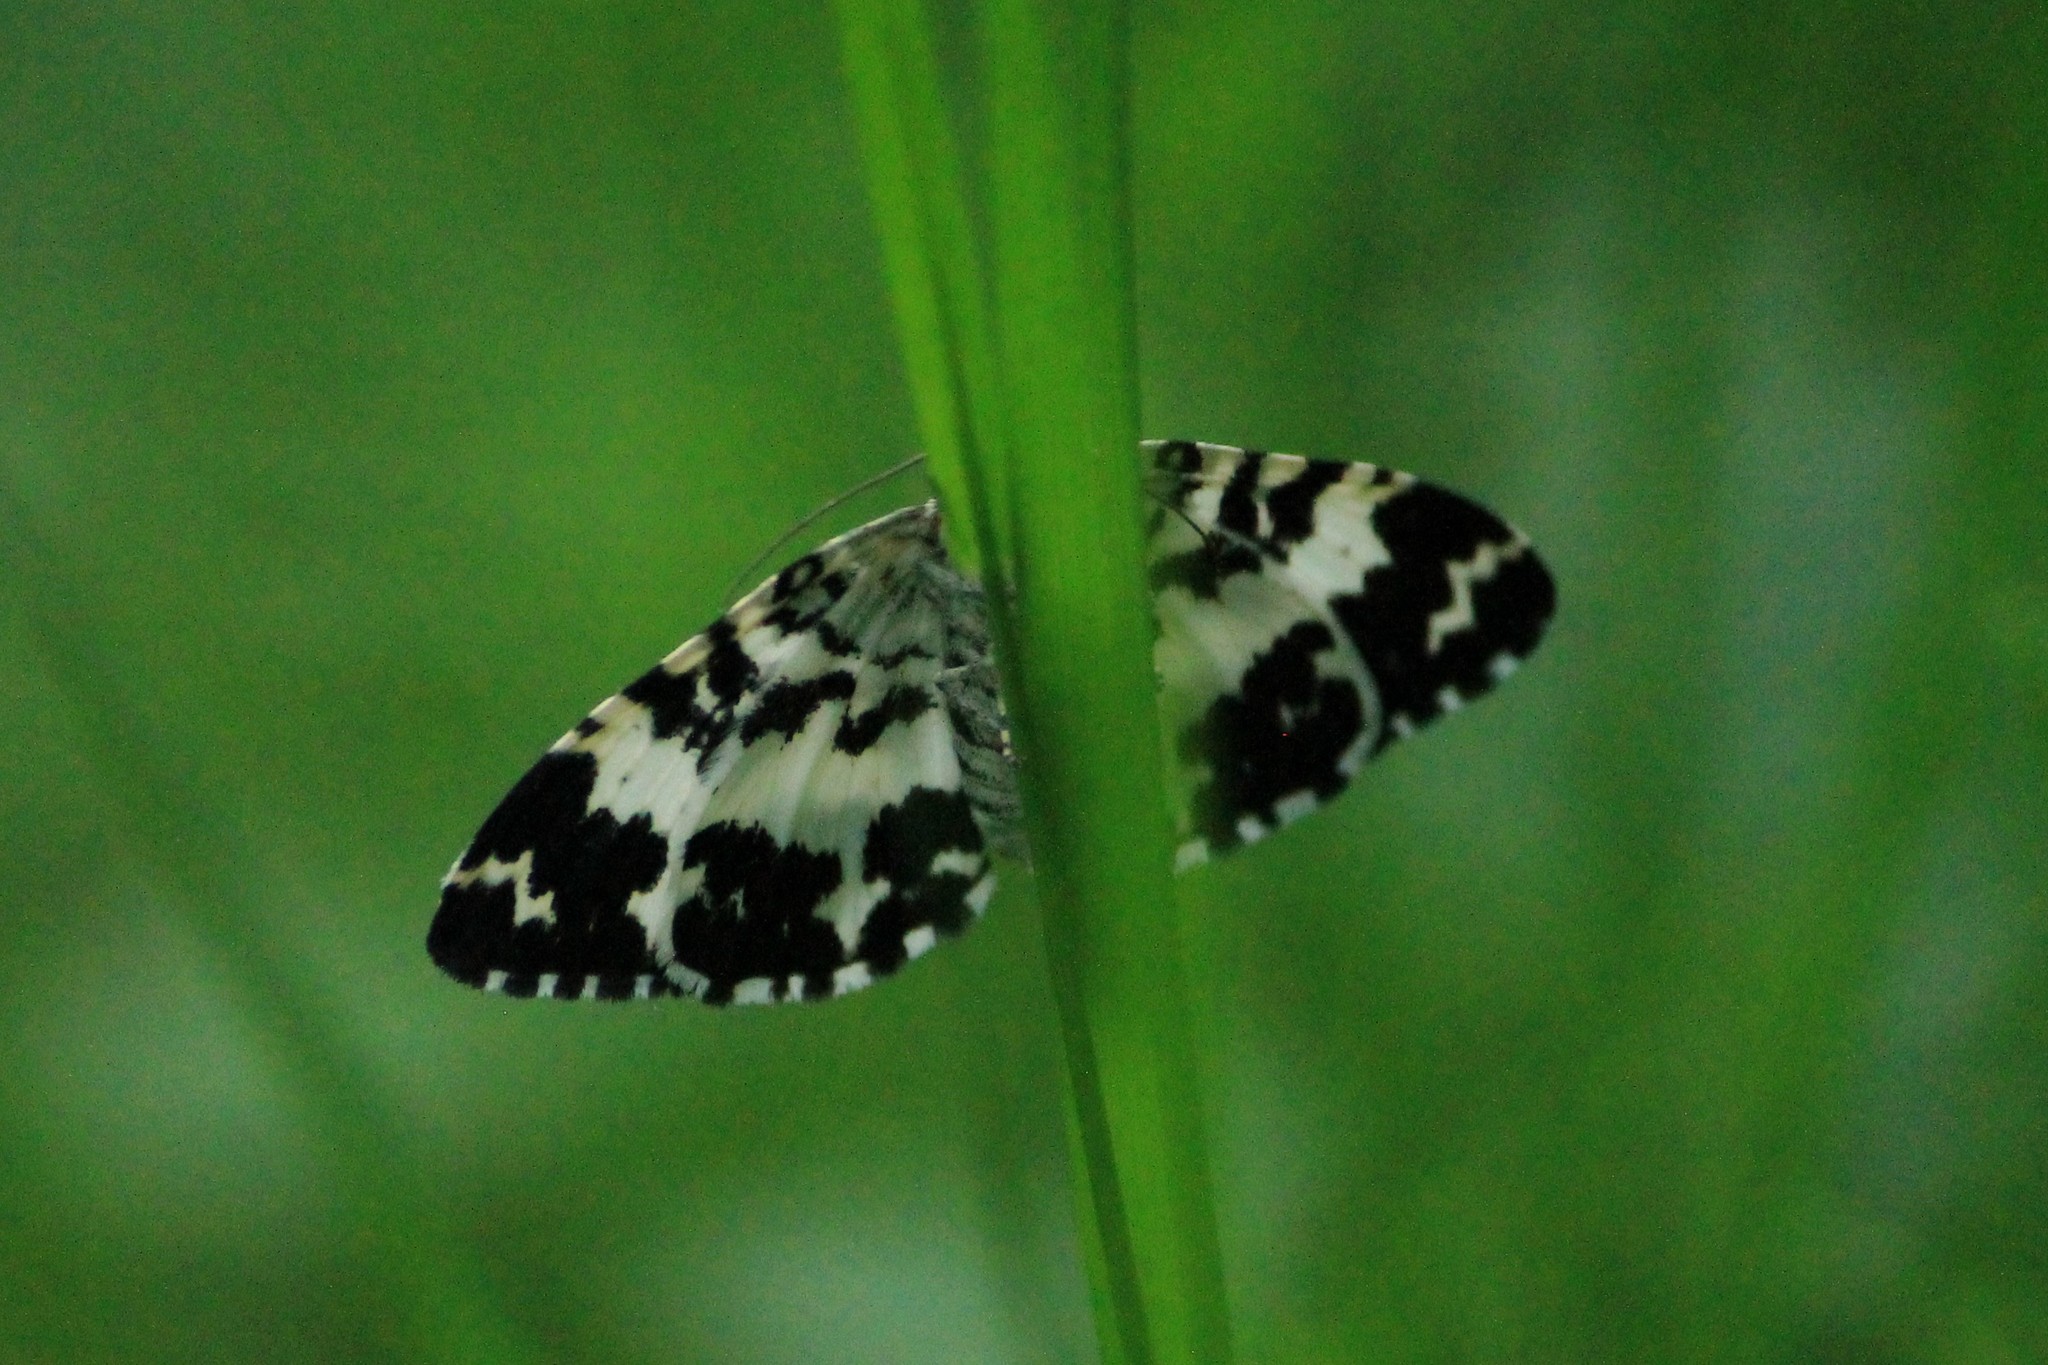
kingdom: Animalia
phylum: Arthropoda
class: Insecta
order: Lepidoptera
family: Geometridae
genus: Rheumaptera
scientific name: Rheumaptera hastata
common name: Argent & sable
